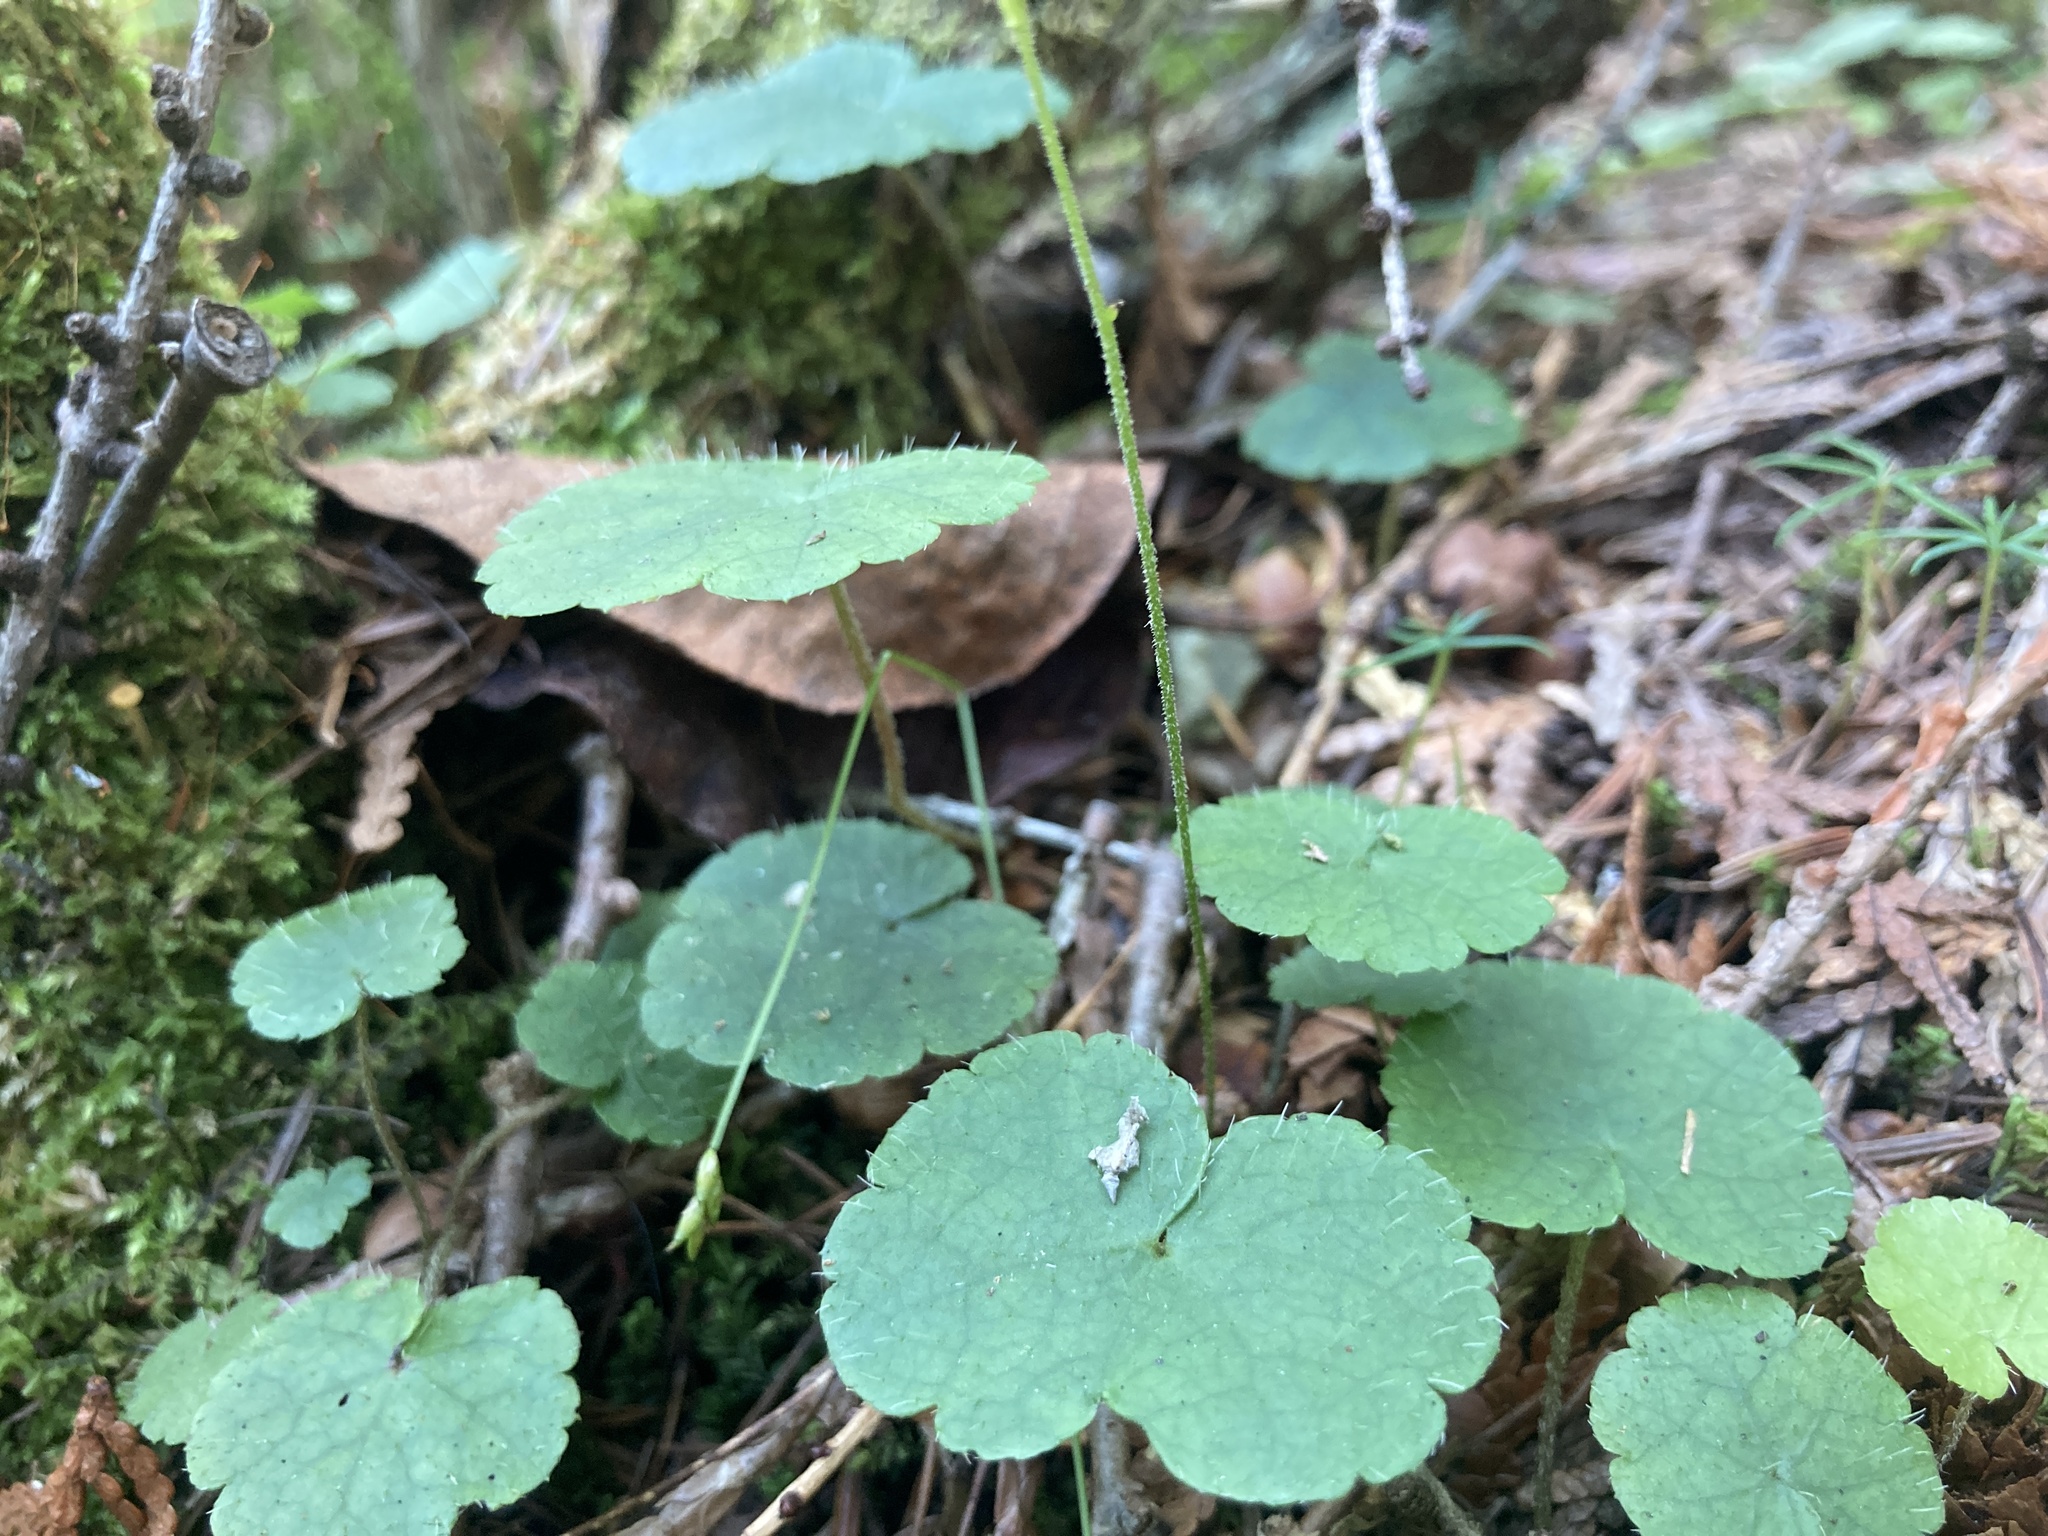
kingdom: Plantae
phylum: Tracheophyta
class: Magnoliopsida
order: Saxifragales
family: Saxifragaceae
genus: Mitella
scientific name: Mitella nuda
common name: Bare-stemmed bishop's-cap
